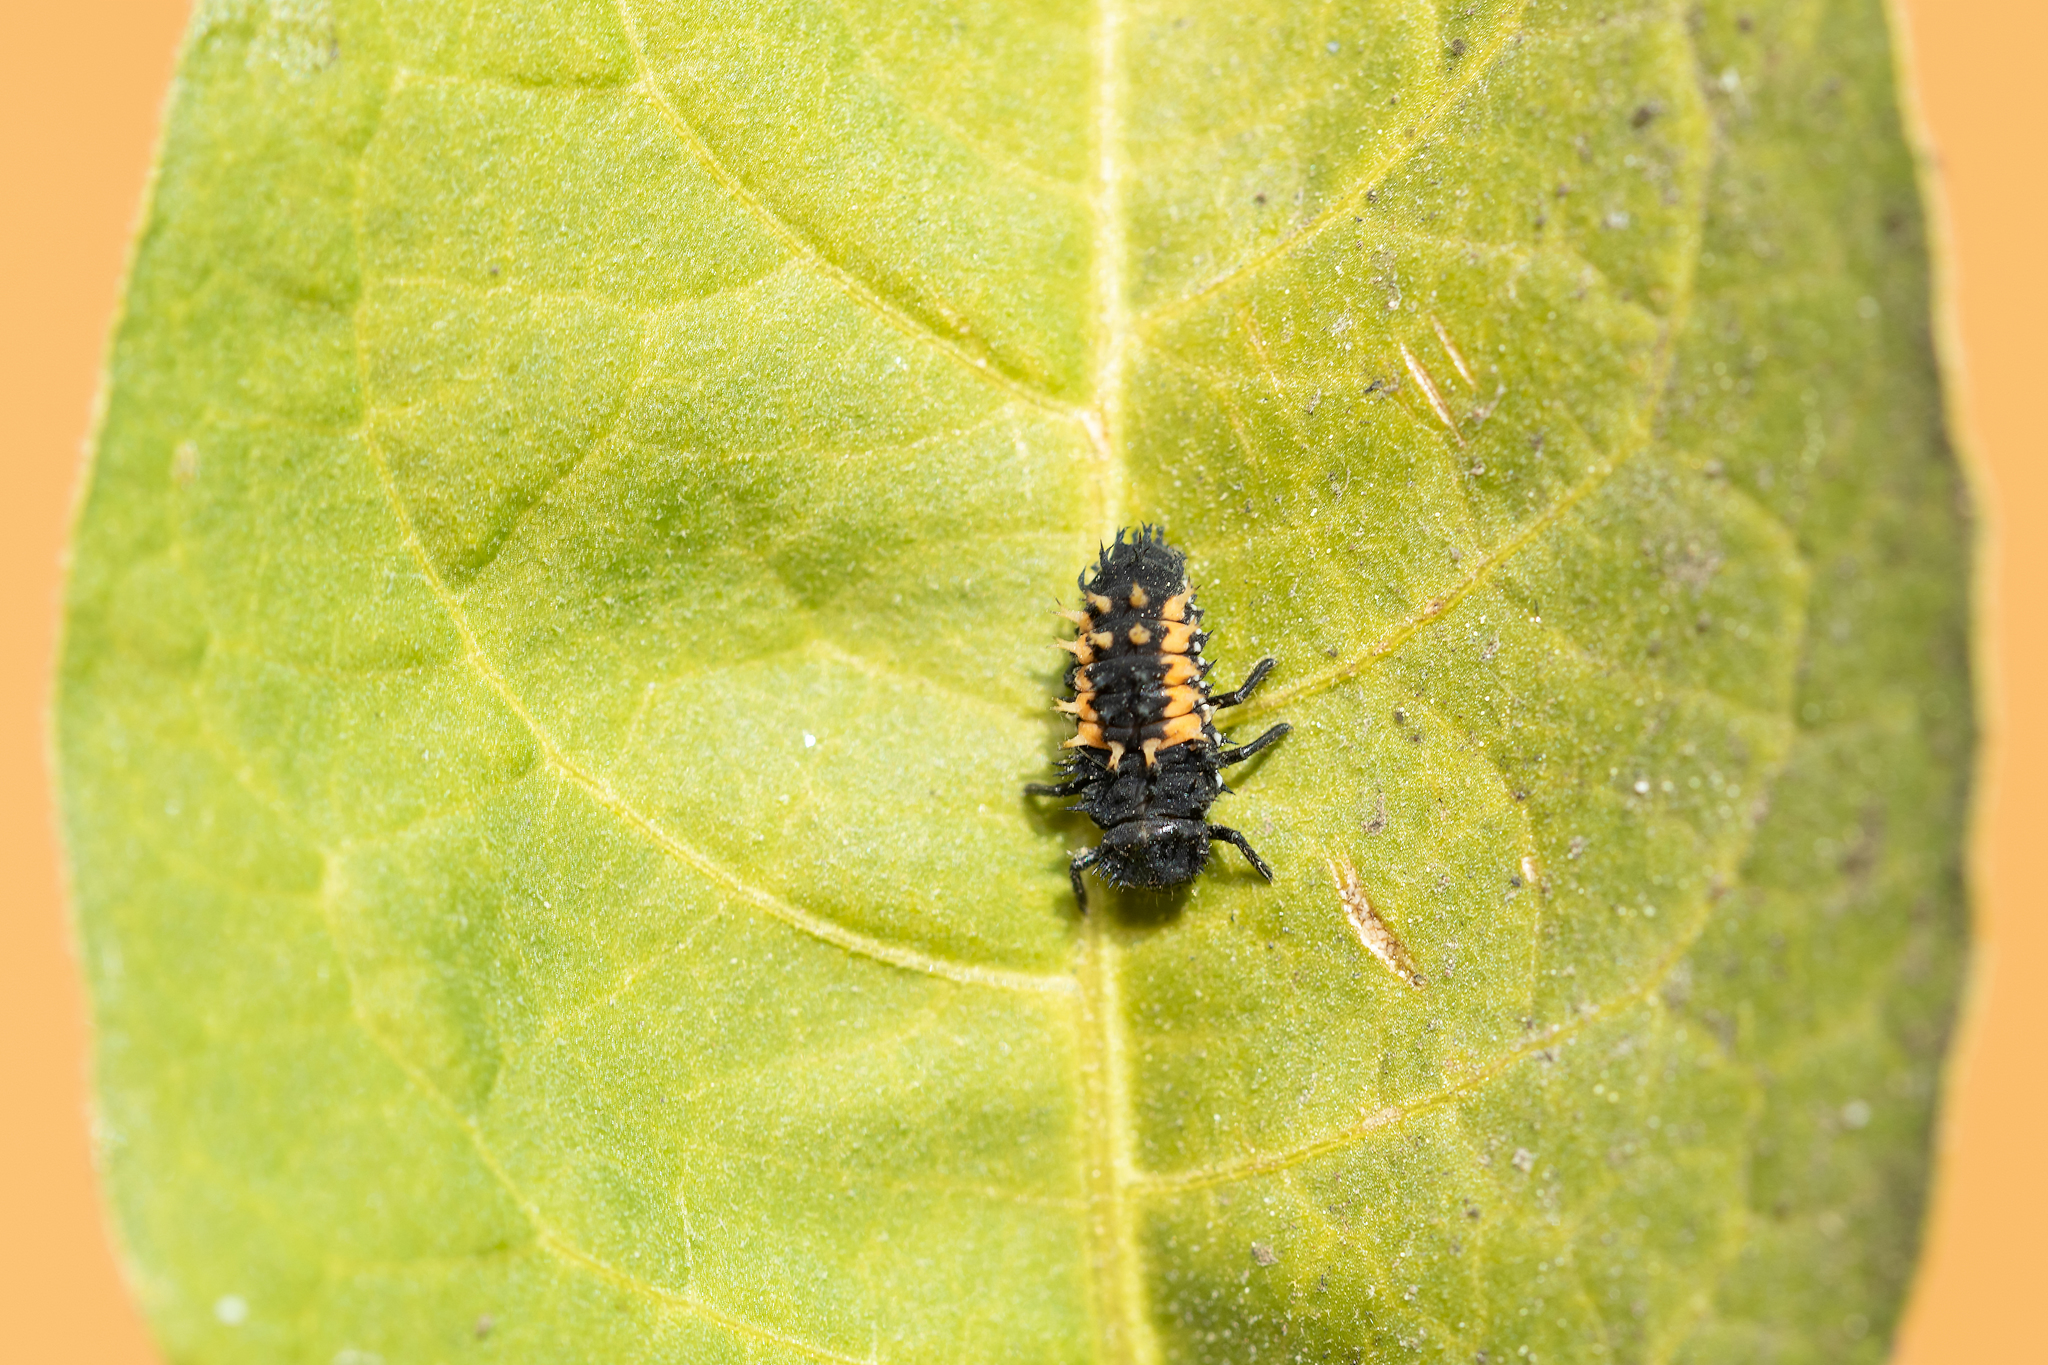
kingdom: Animalia
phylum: Arthropoda
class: Insecta
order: Coleoptera
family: Coccinellidae
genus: Harmonia
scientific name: Harmonia axyridis
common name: Harlequin ladybird
